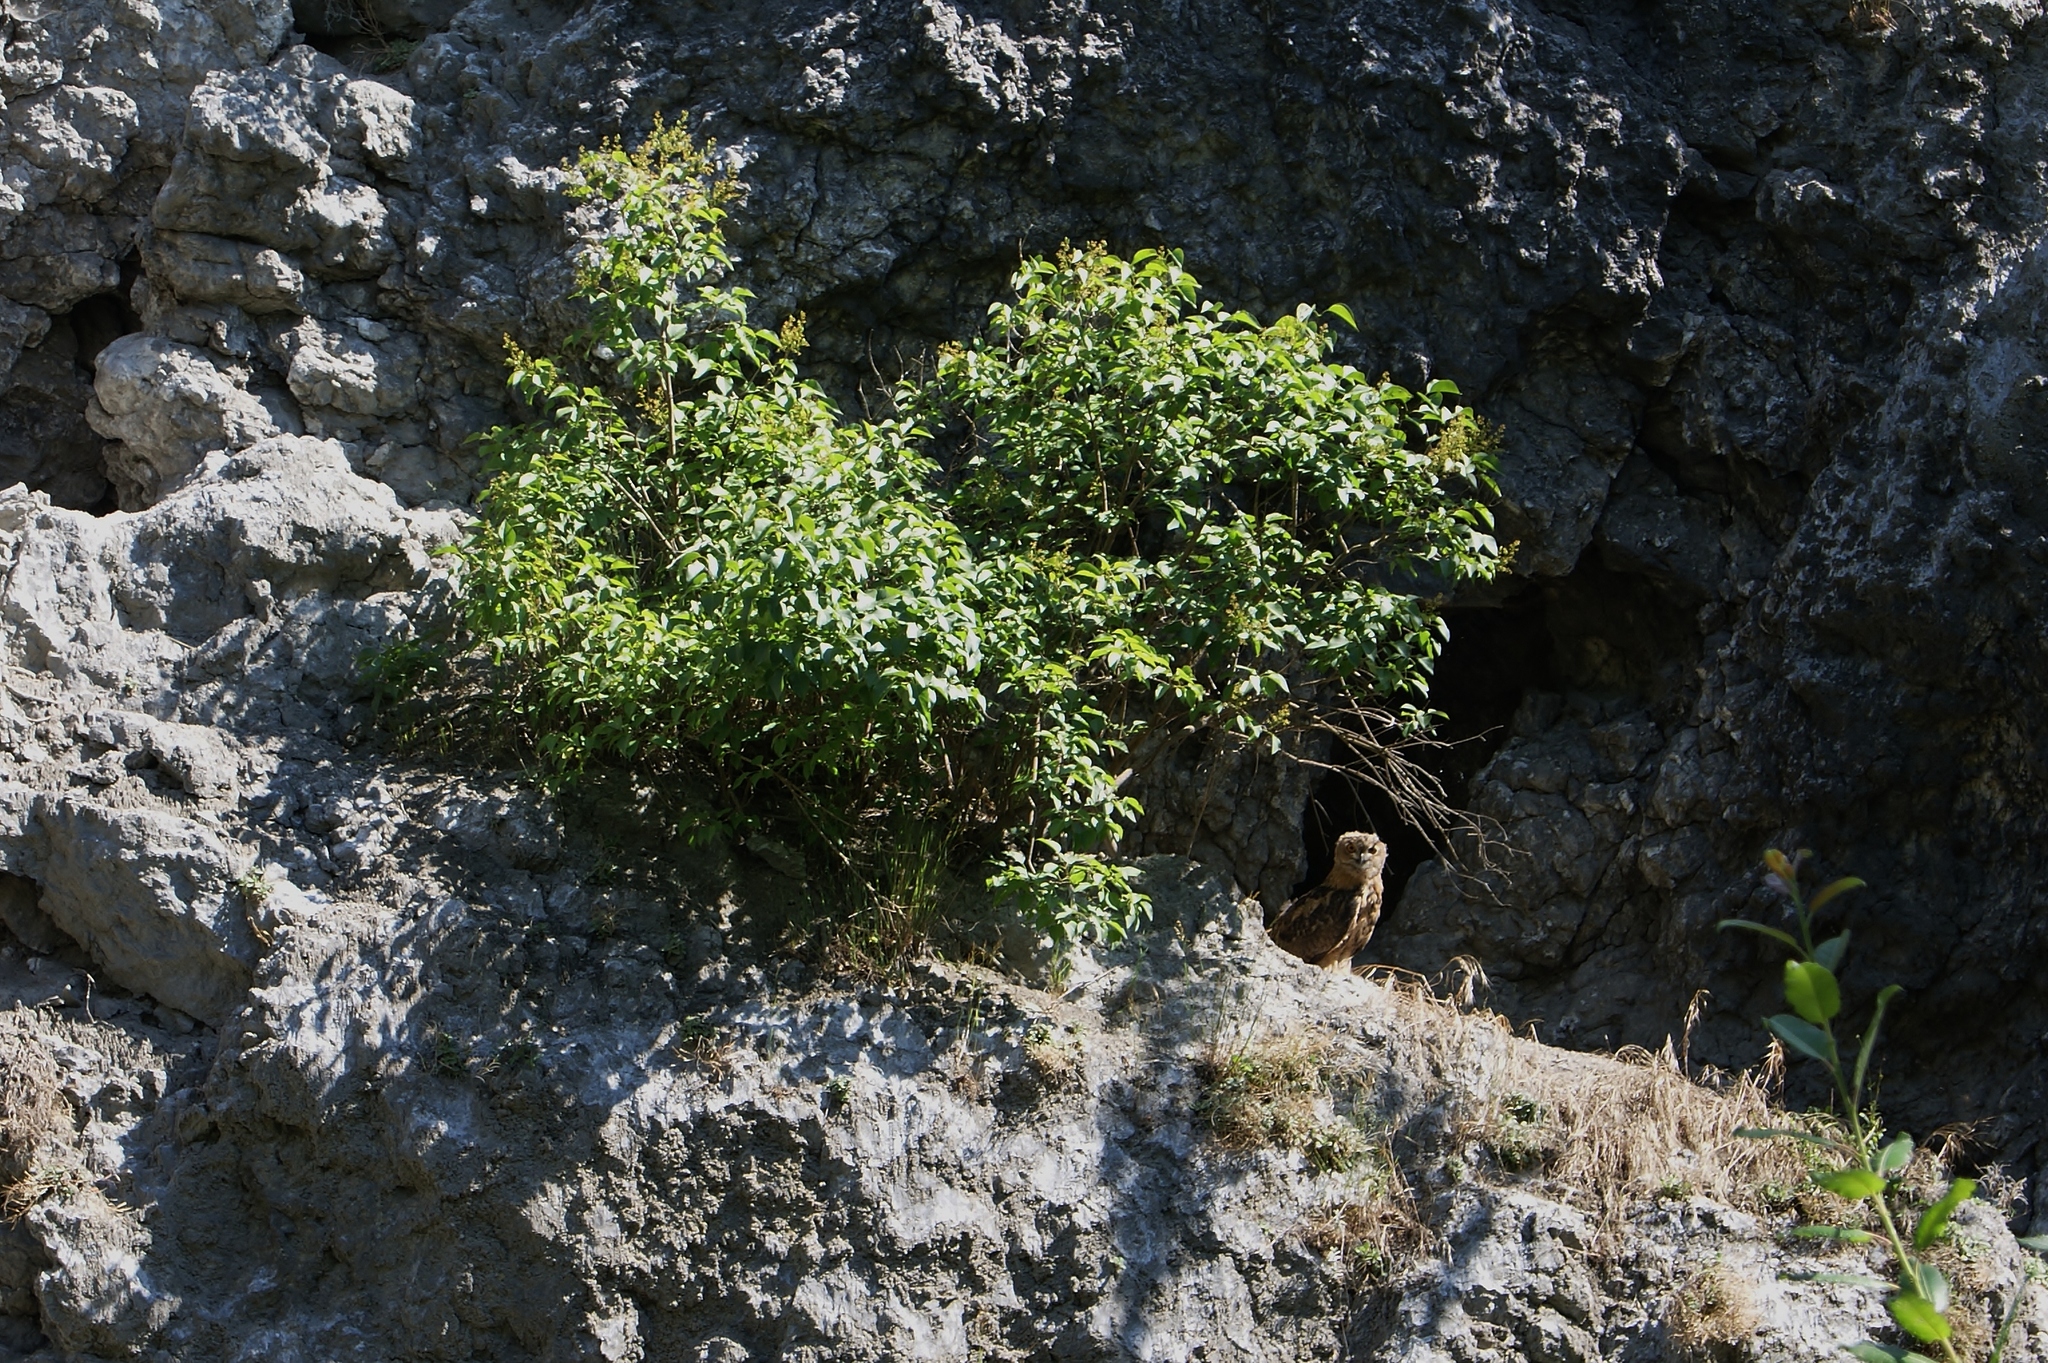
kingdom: Animalia
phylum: Chordata
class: Aves
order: Strigiformes
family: Strigidae
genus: Bubo
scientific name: Bubo bubo
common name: Eurasian eagle-owl
